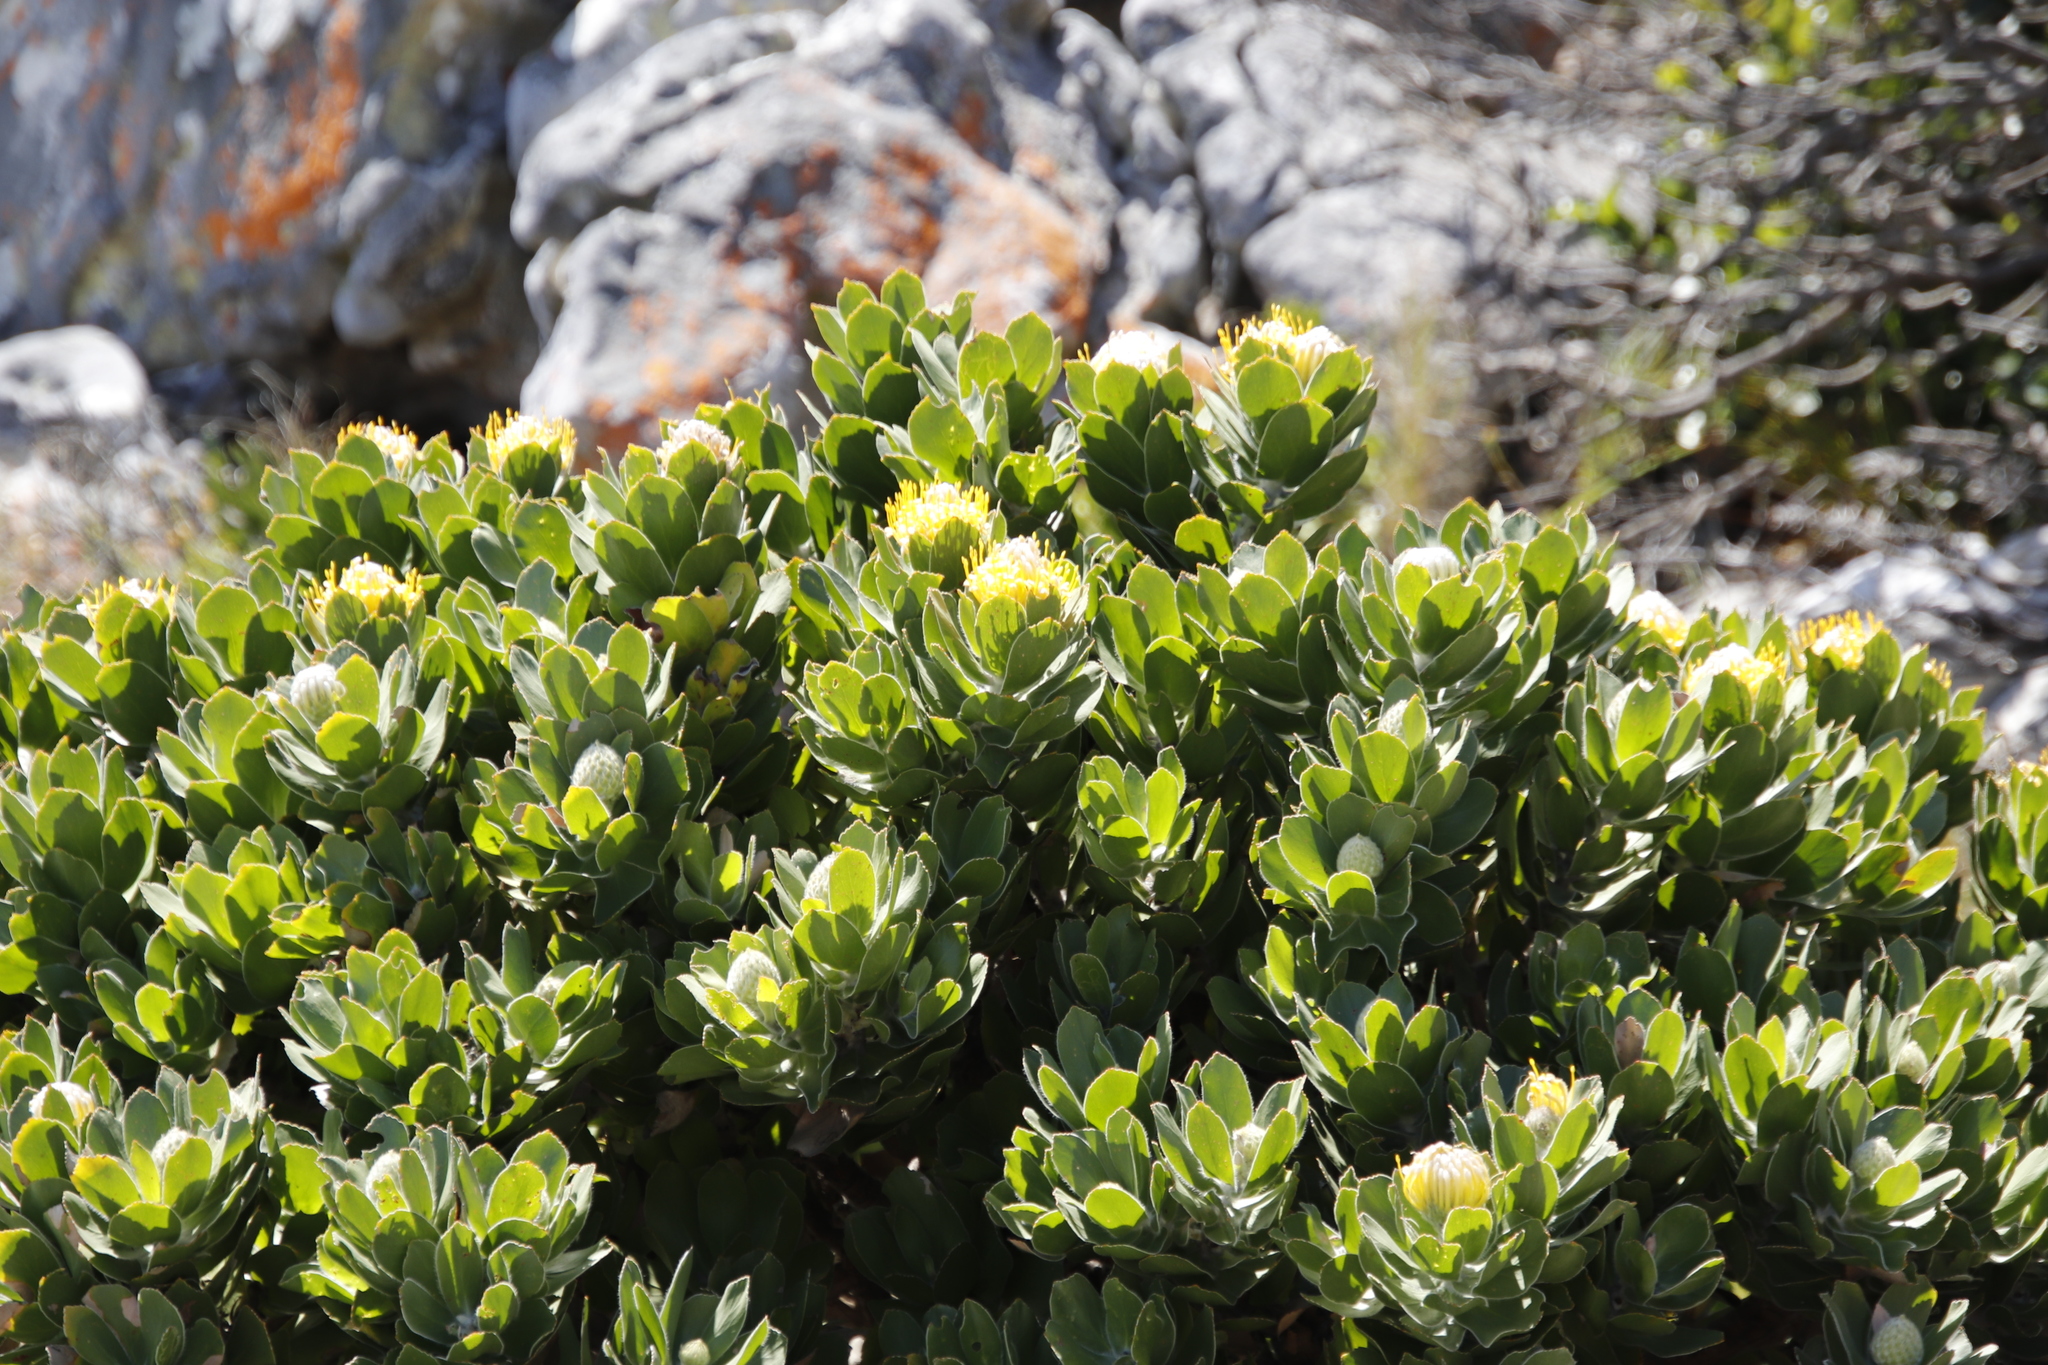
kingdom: Plantae
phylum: Tracheophyta
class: Magnoliopsida
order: Proteales
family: Proteaceae
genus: Leucospermum
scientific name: Leucospermum conocarpodendron
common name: Tree pincushion
